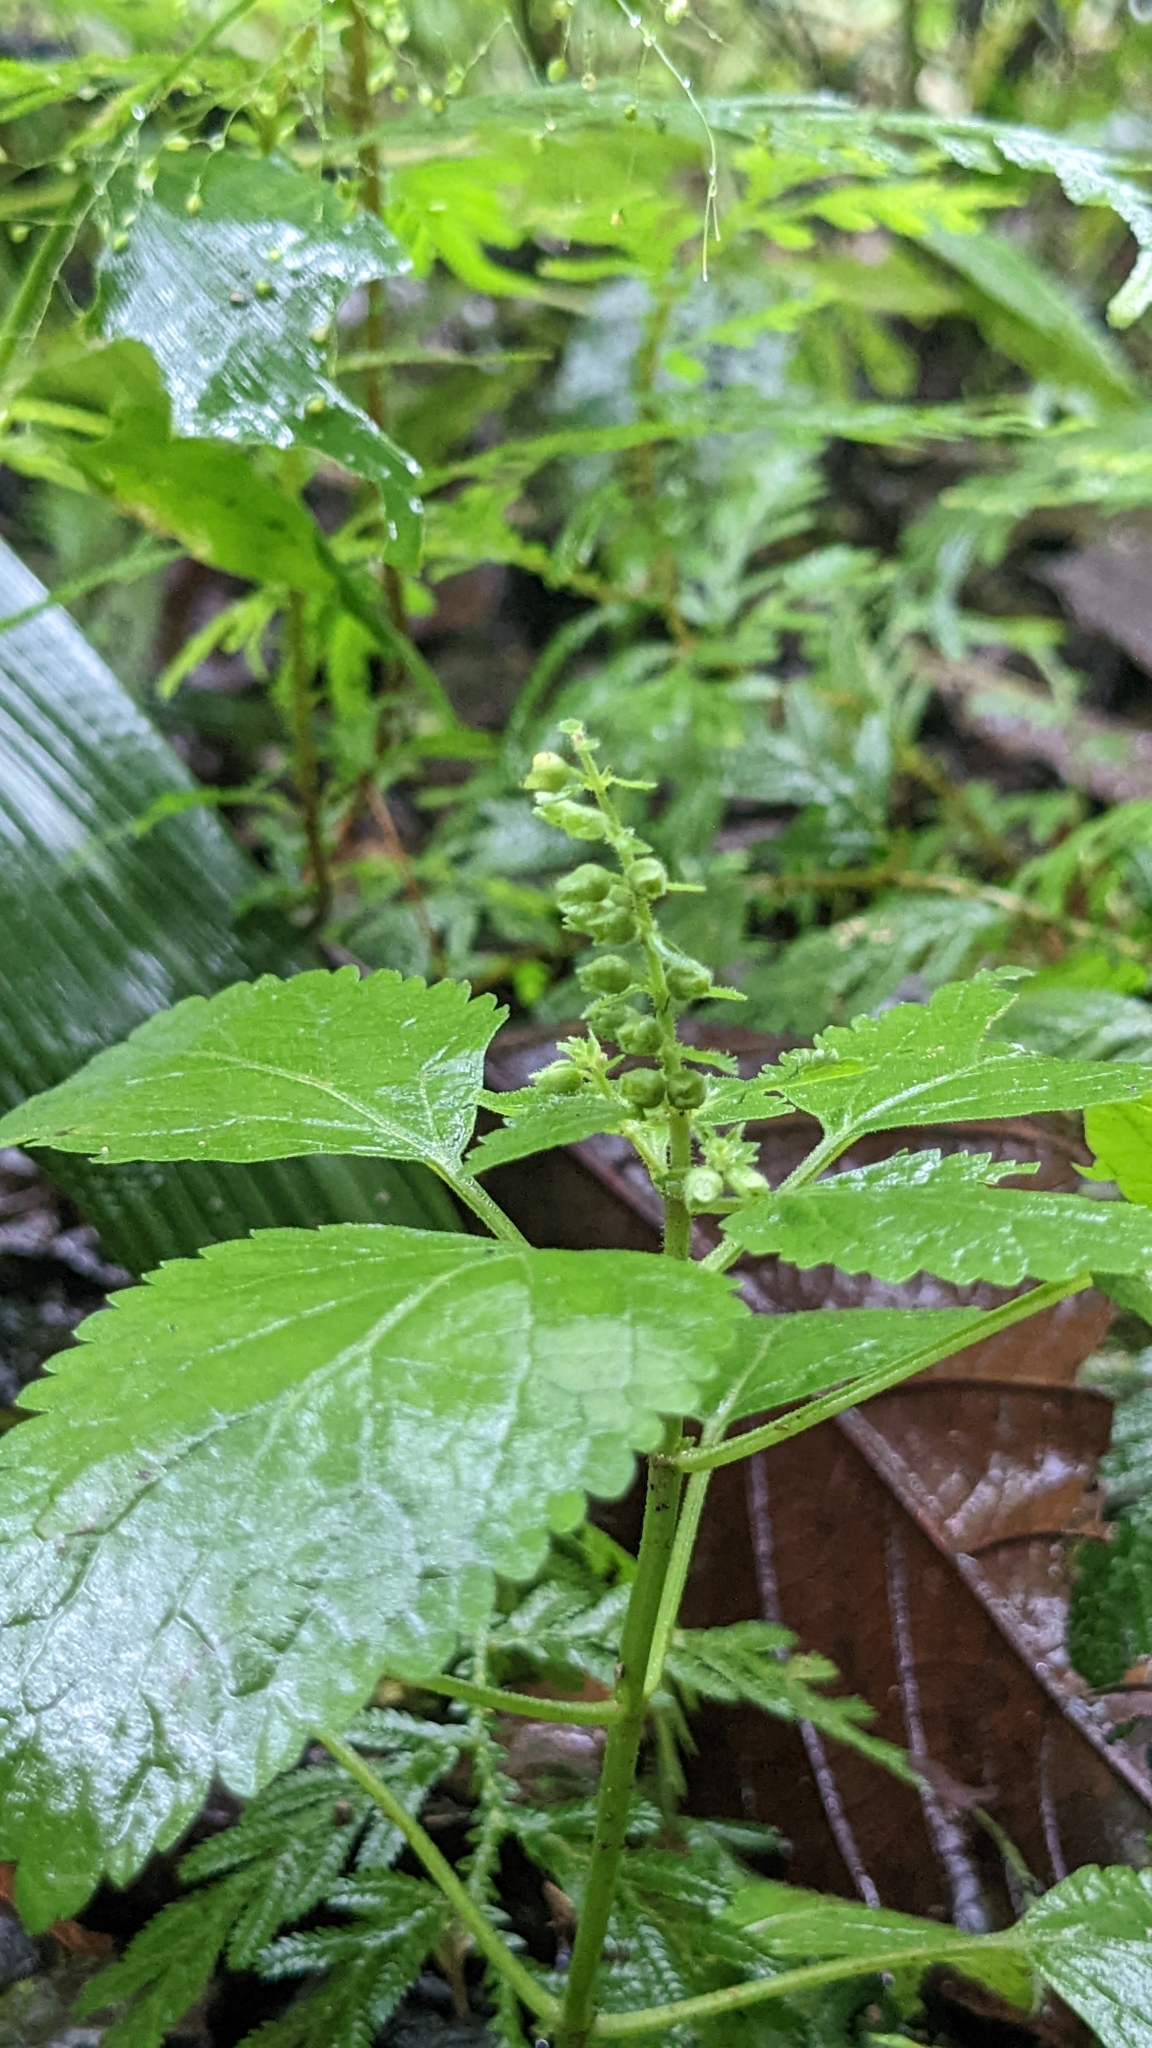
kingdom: Plantae
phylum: Tracheophyta
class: Magnoliopsida
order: Lamiales
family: Lamiaceae
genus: Teucrium
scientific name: Teucrium viscidum
